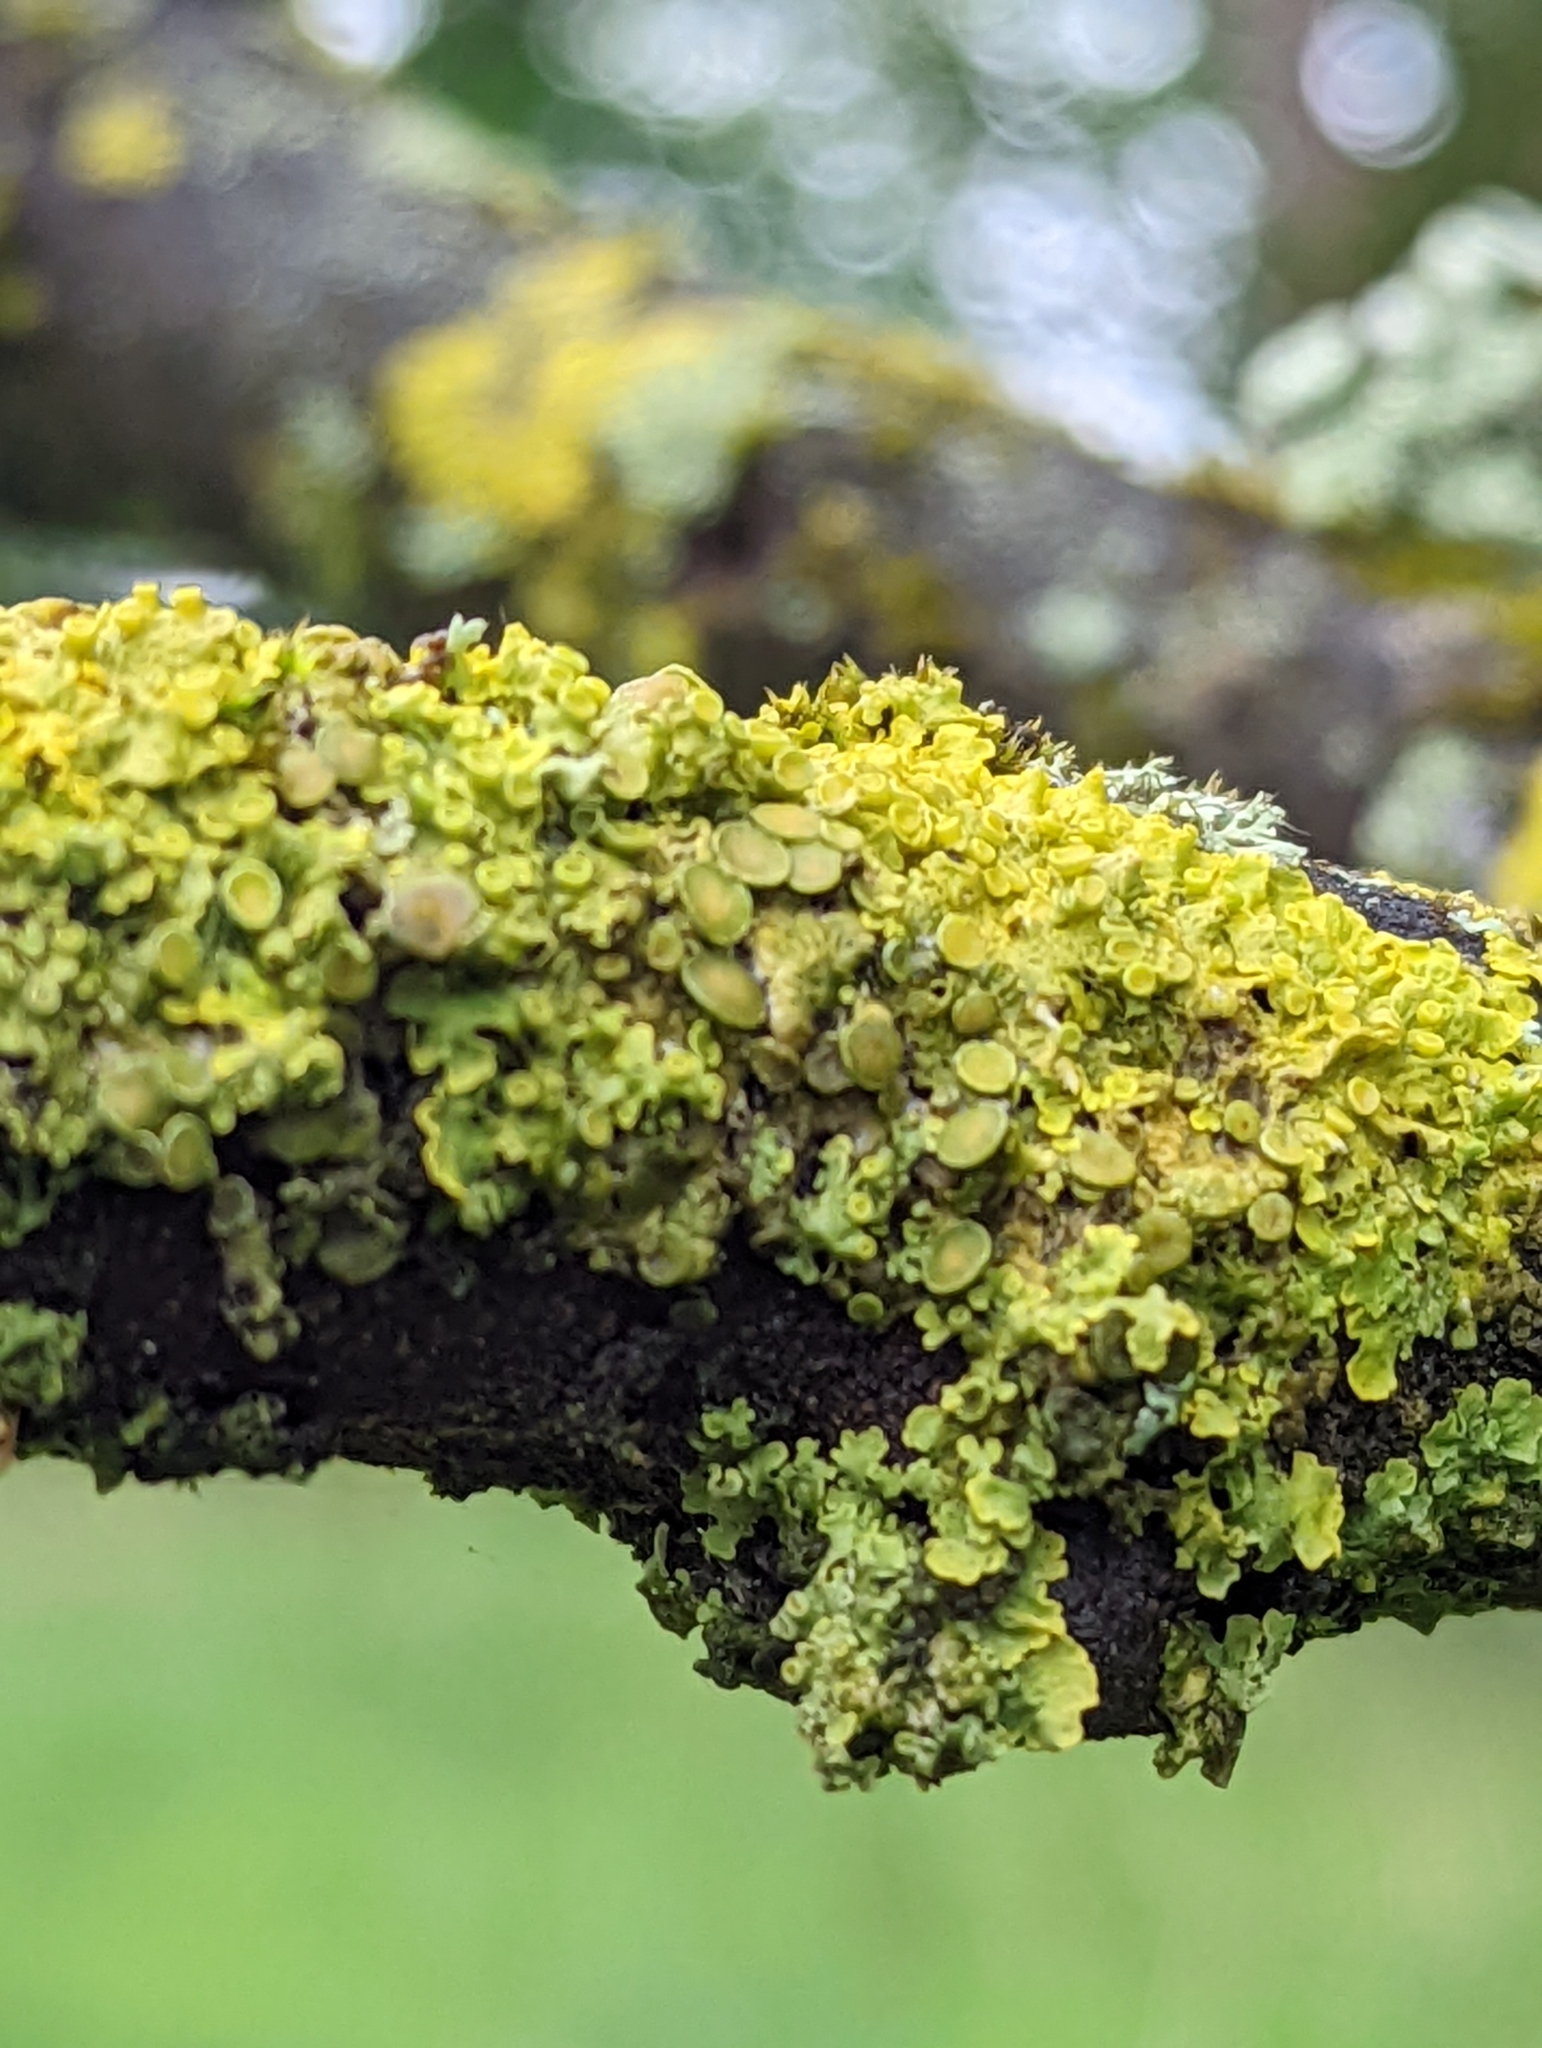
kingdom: Fungi
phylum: Ascomycota
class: Lecanoromycetes
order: Teloschistales
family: Teloschistaceae
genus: Xanthoria
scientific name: Xanthoria parietina
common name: Common orange lichen
